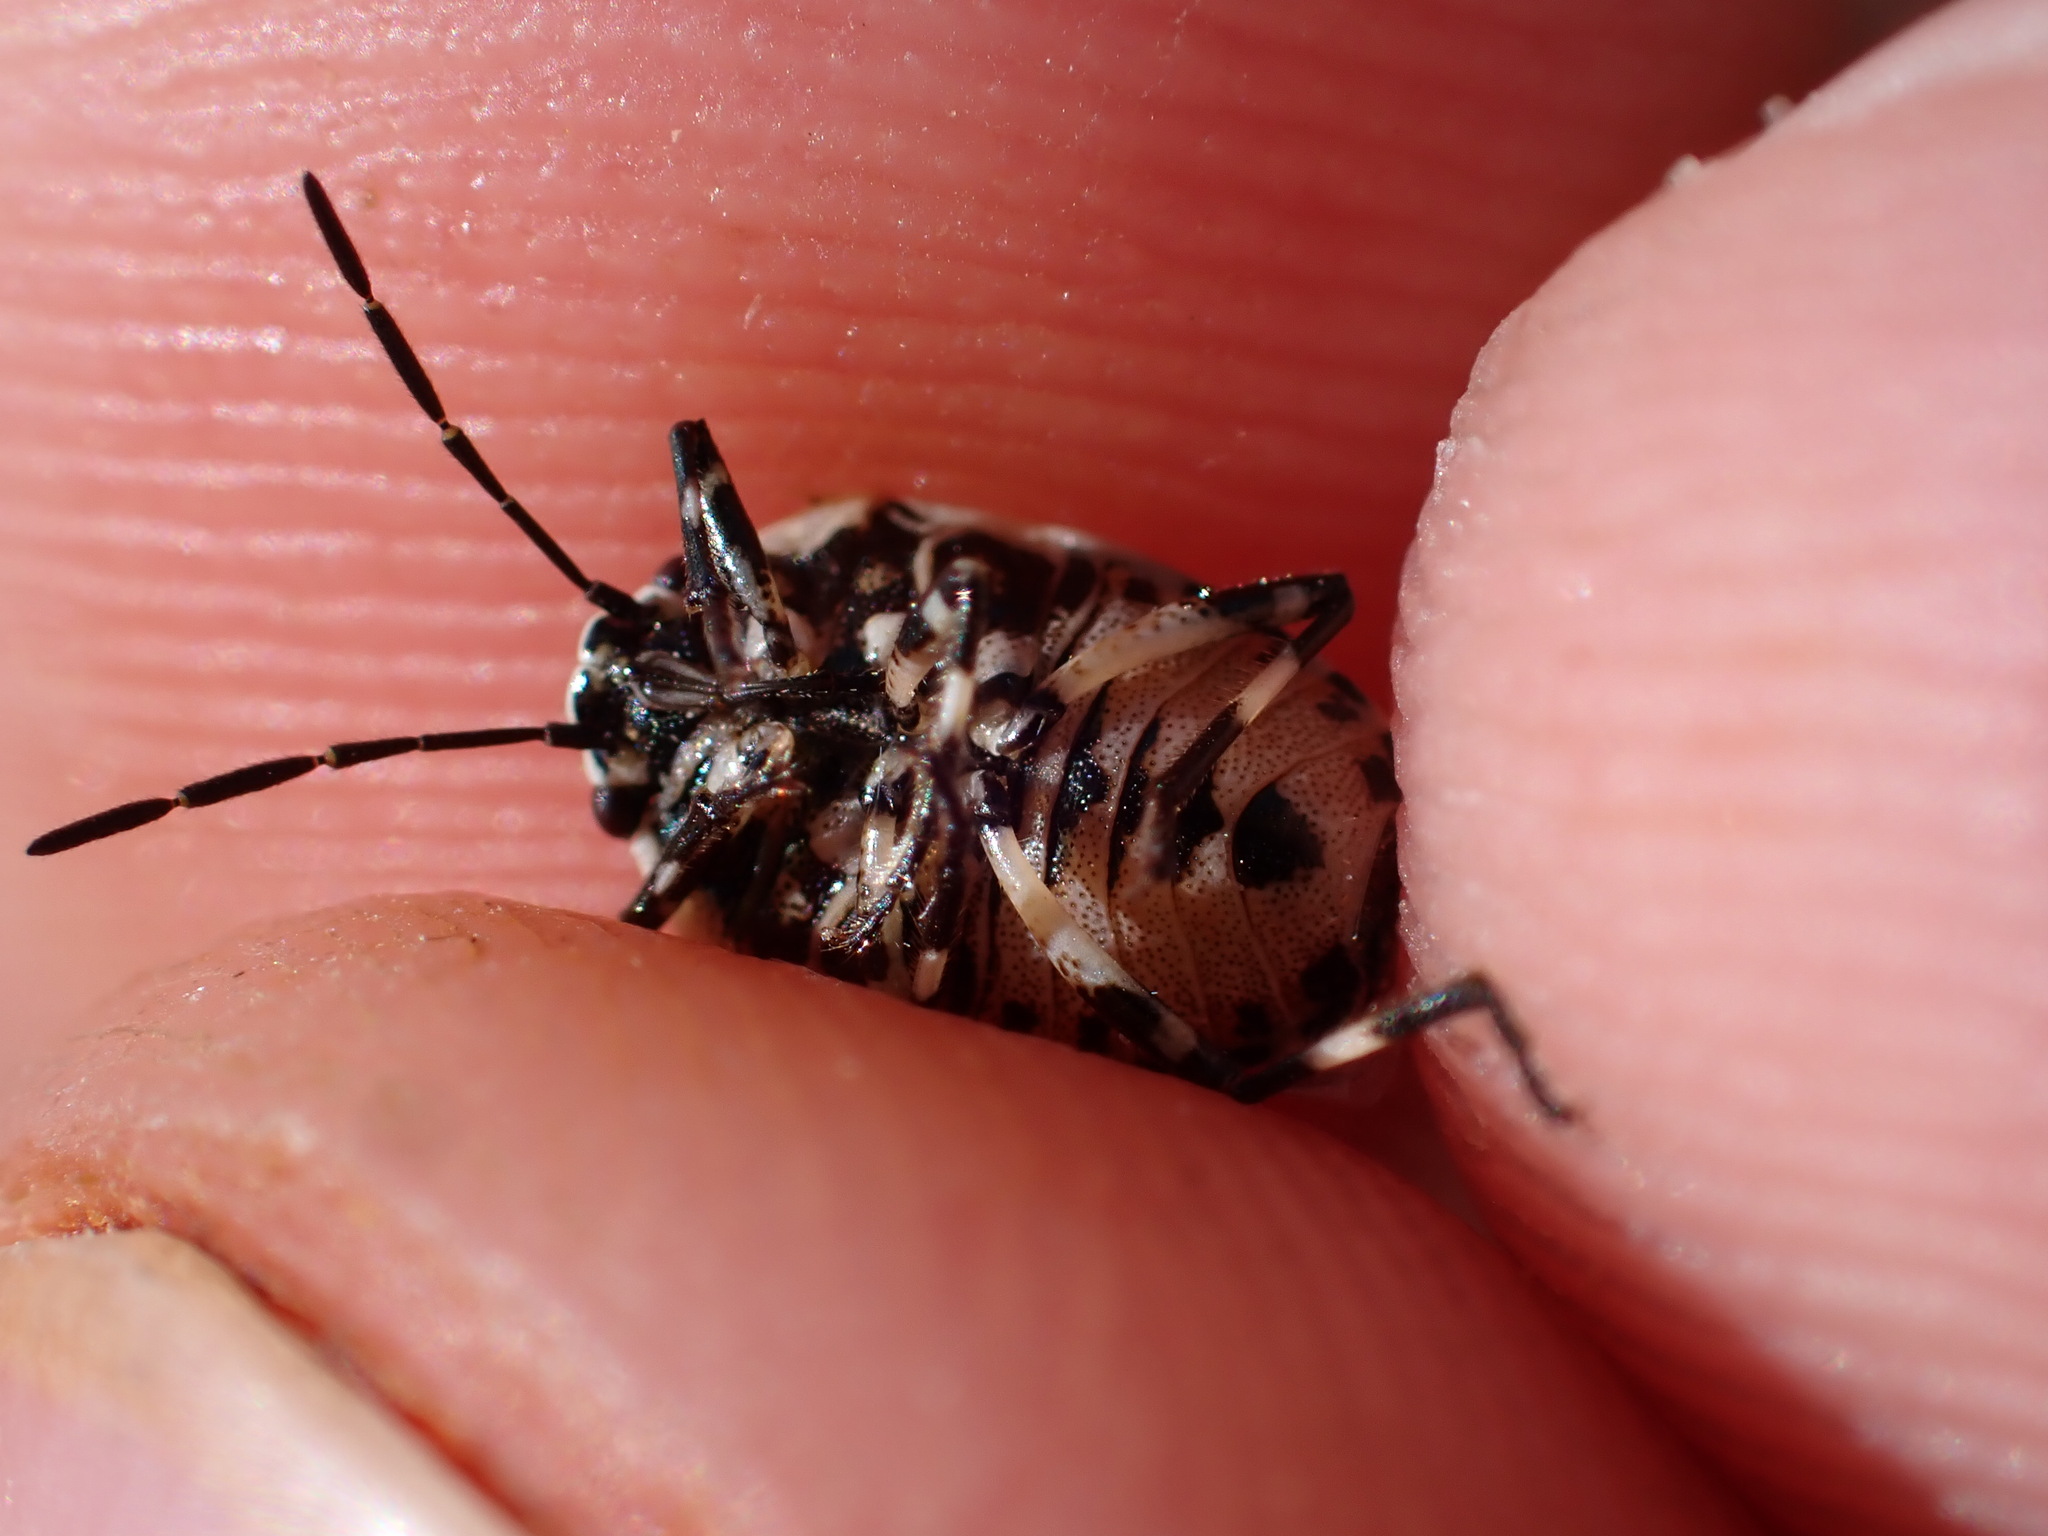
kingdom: Animalia
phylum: Arthropoda
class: Insecta
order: Hemiptera
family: Pentatomidae
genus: Eurydema
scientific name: Eurydema oleracea
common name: Cabbage bug
